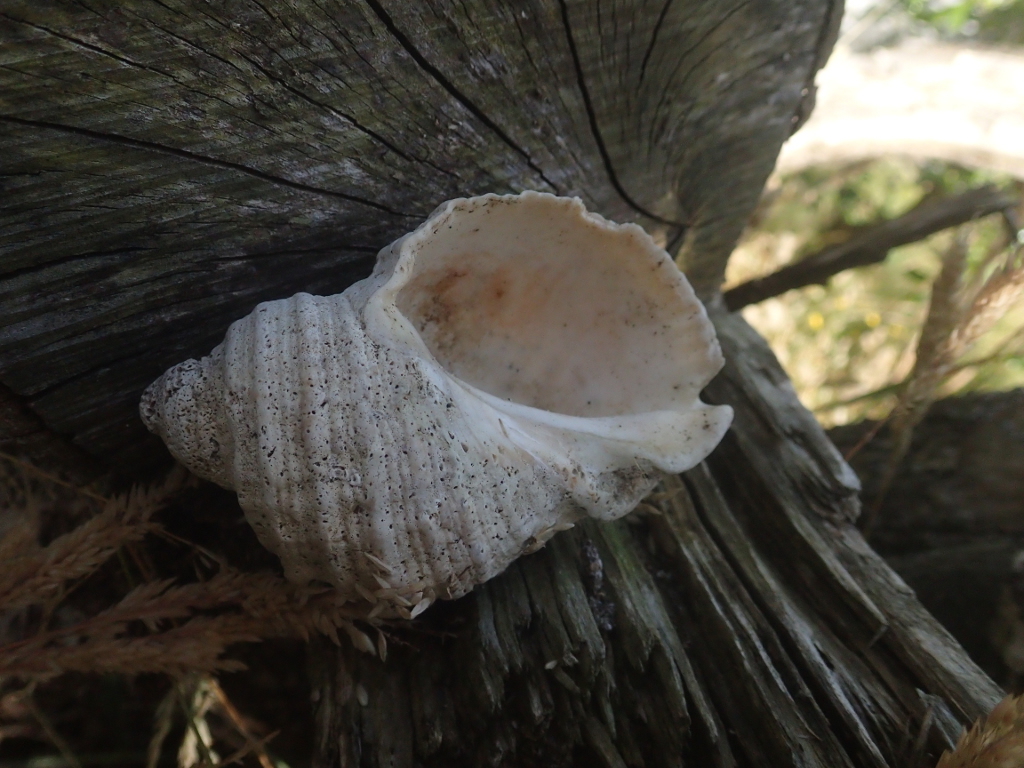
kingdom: Animalia
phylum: Mollusca
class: Gastropoda
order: Neogastropoda
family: Muricidae
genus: Dicathais
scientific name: Dicathais orbita
